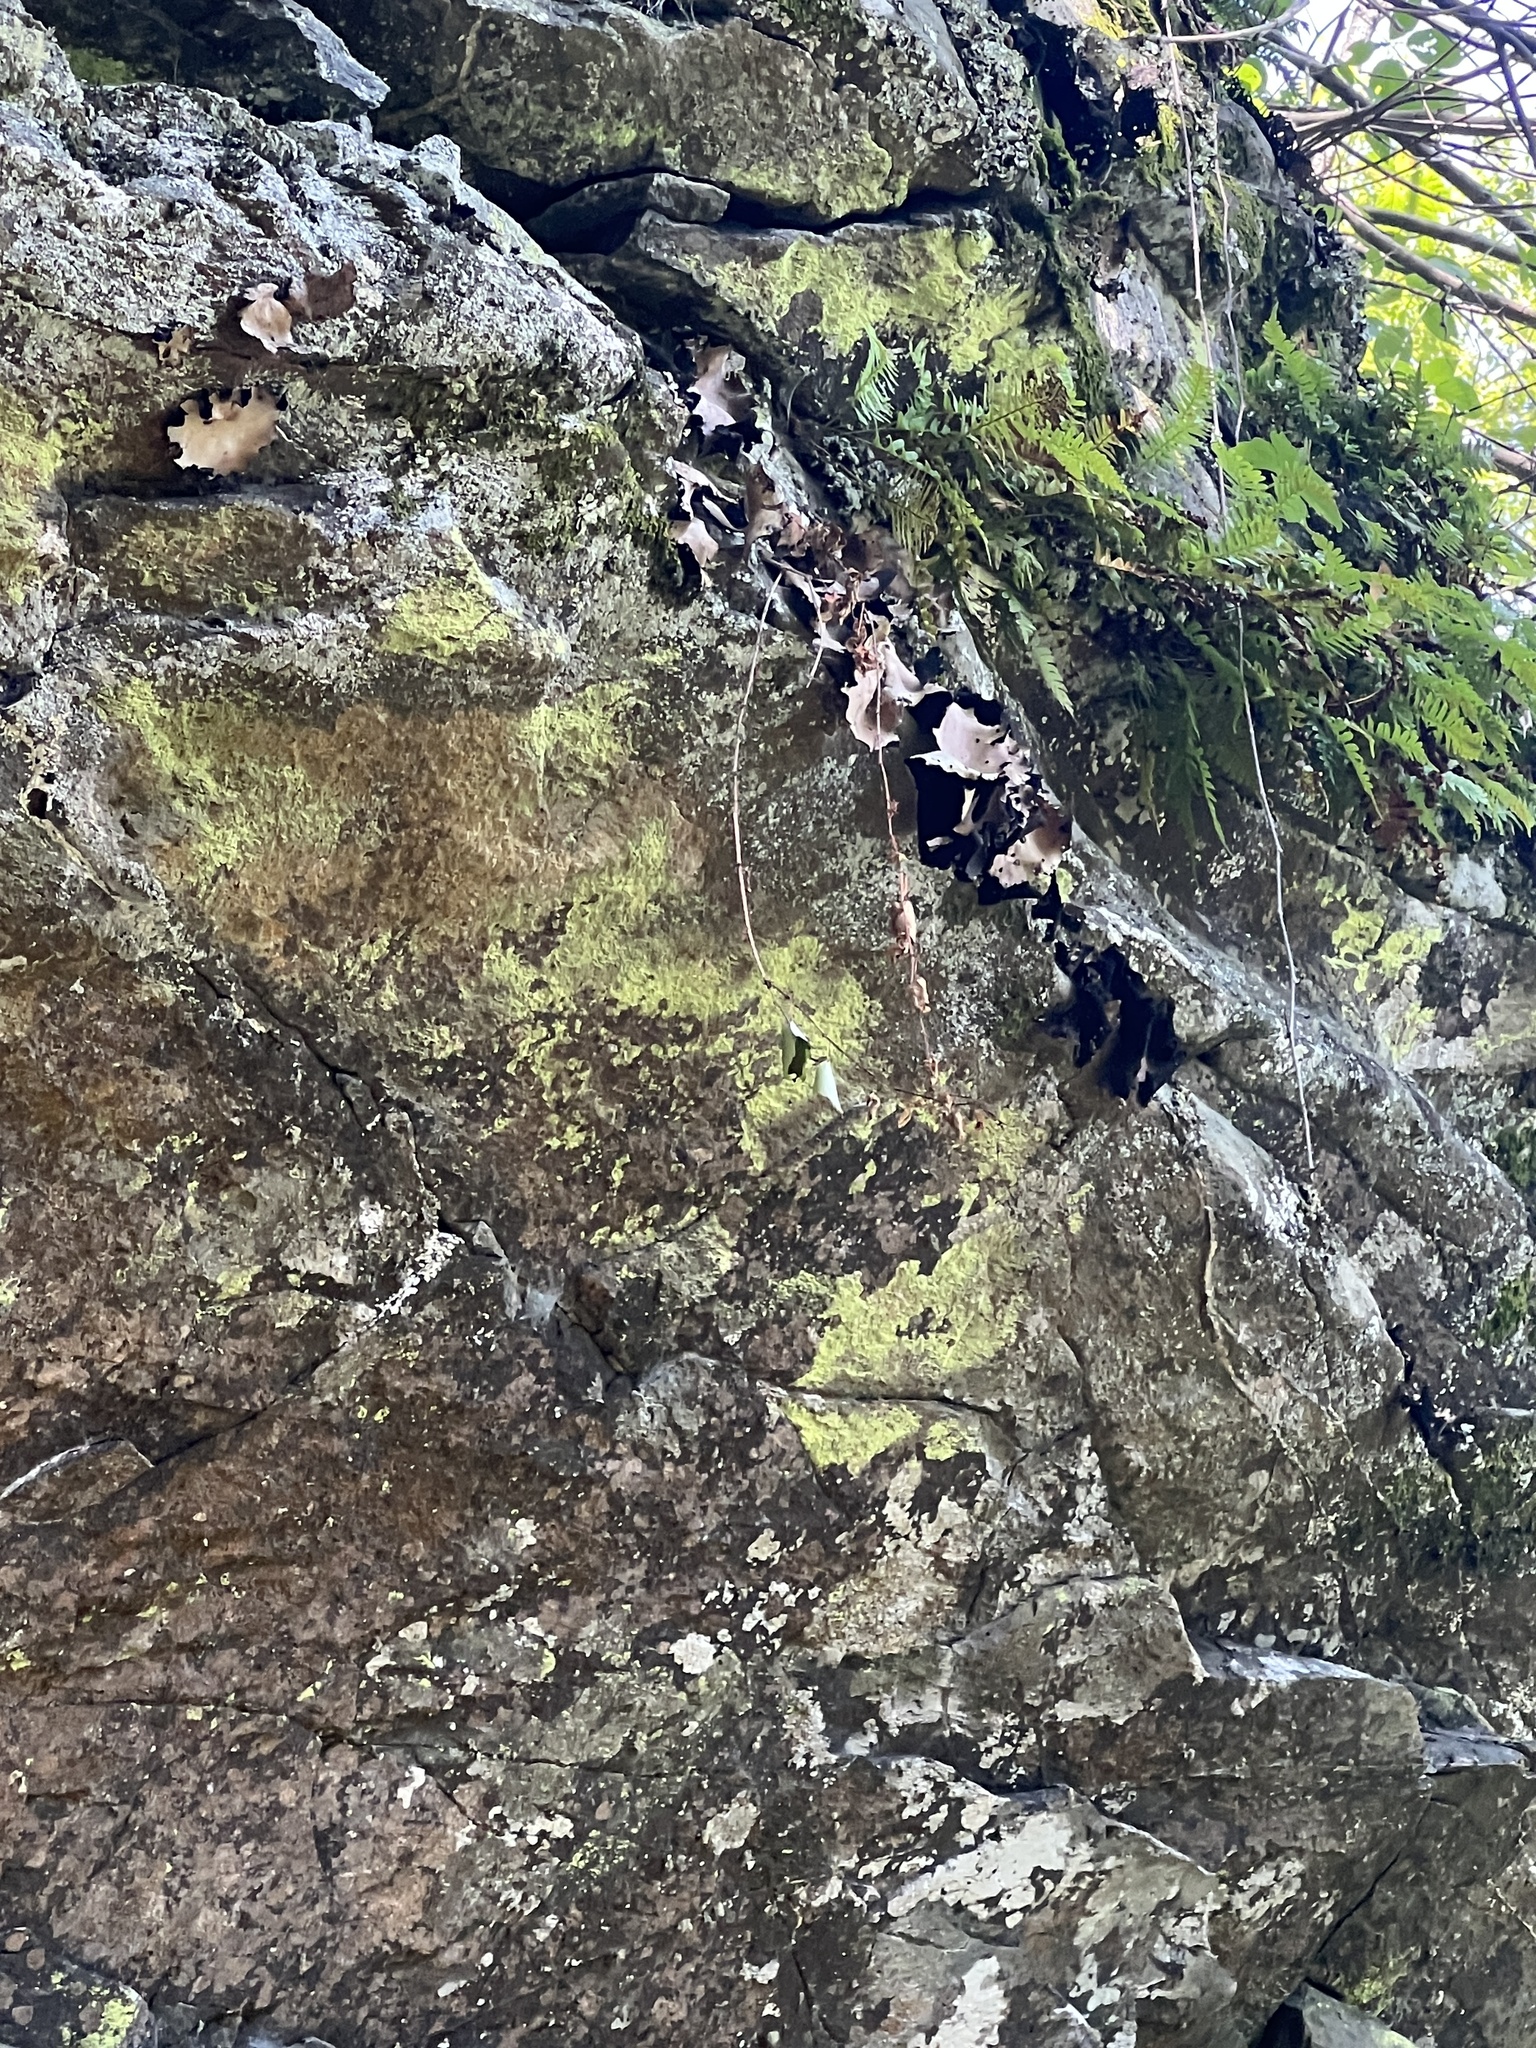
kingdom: Fungi
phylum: Ascomycota
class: Lecanoromycetes
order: Umbilicariales
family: Umbilicariaceae
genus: Umbilicaria
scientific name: Umbilicaria mammulata
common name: Smooth rock tripe
